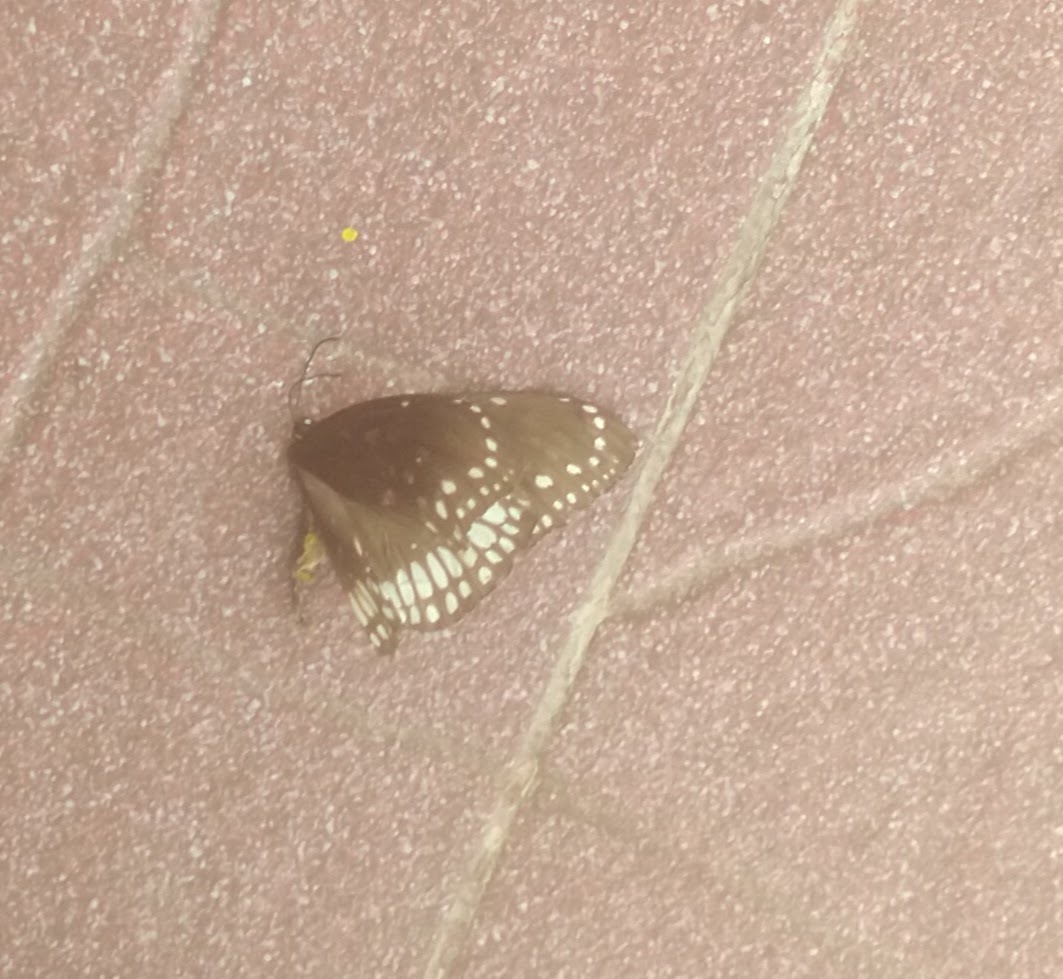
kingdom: Animalia
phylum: Arthropoda
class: Insecta
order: Lepidoptera
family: Nymphalidae
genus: Euploea
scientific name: Euploea core
